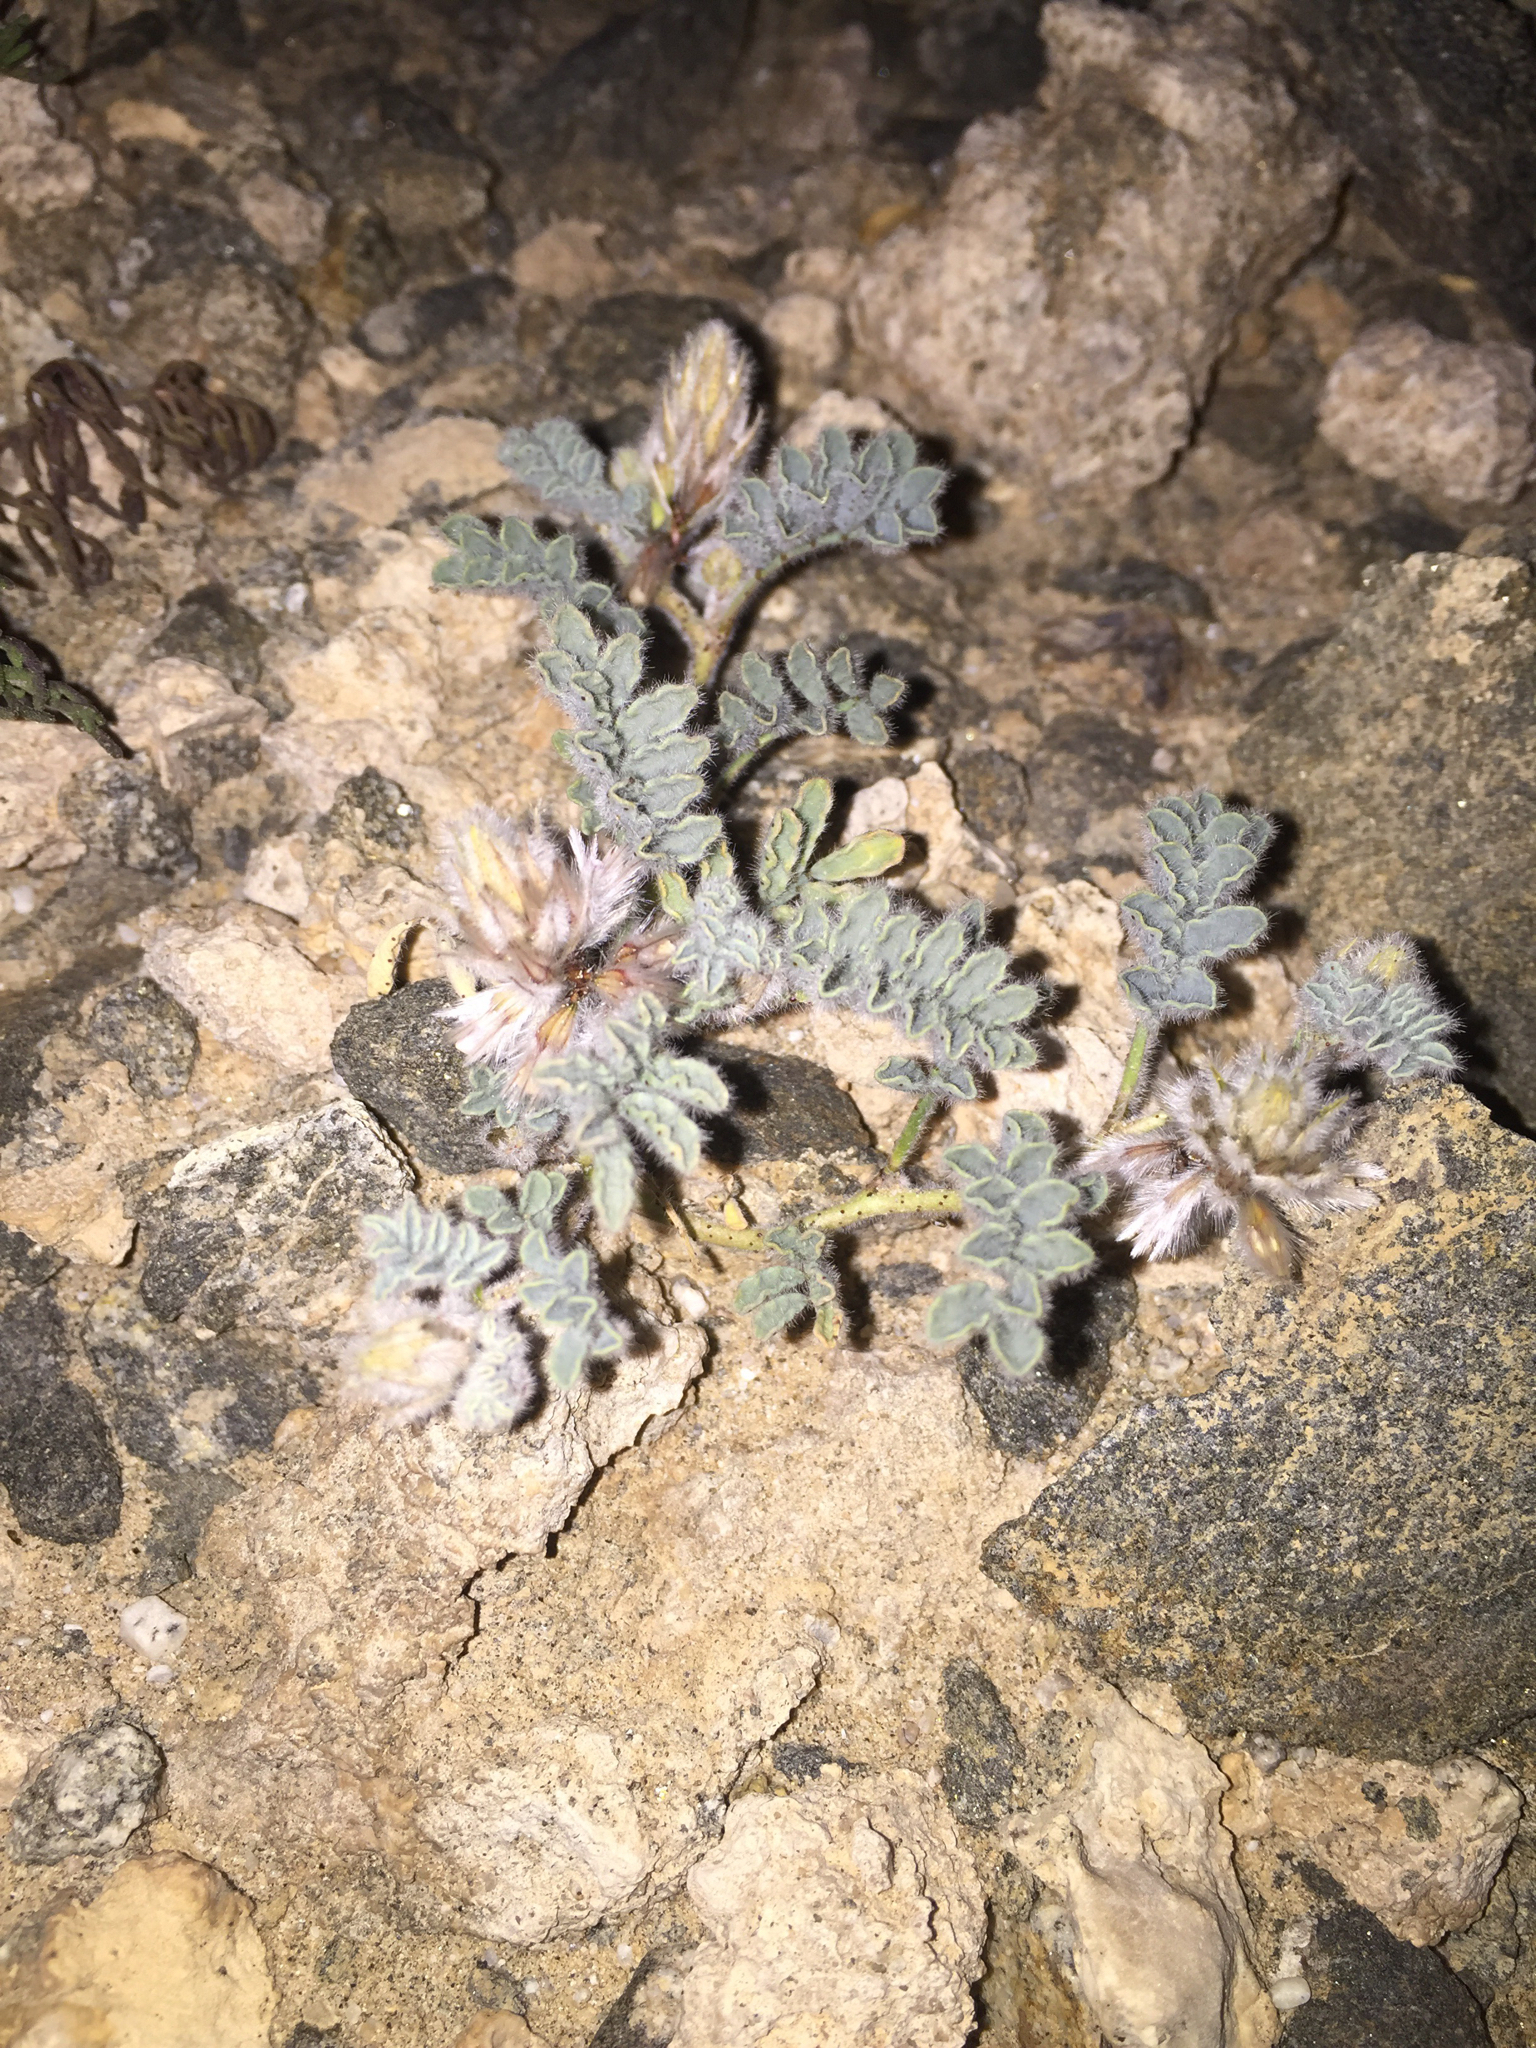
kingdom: Plantae
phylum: Tracheophyta
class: Magnoliopsida
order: Fabales
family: Fabaceae
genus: Dalea
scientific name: Dalea mollissima
